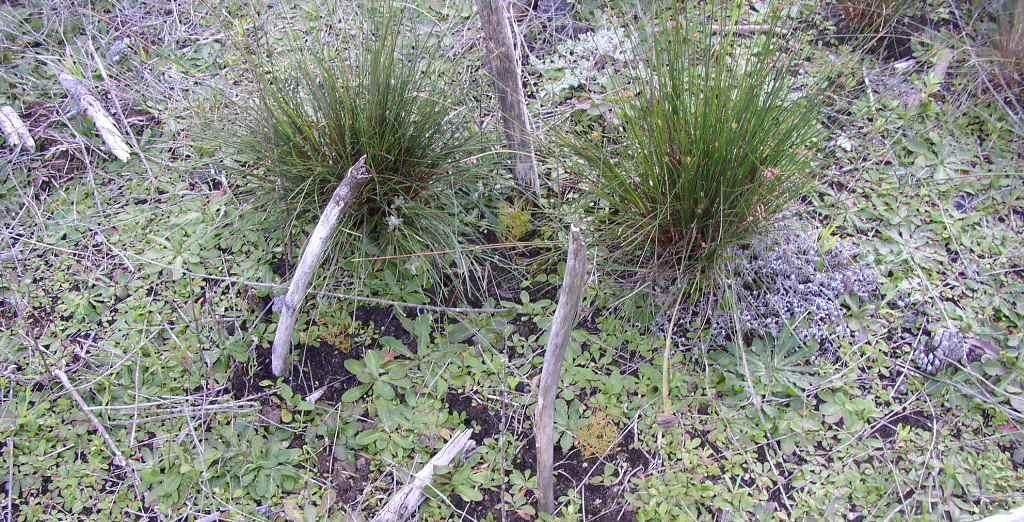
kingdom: Plantae
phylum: Tracheophyta
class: Magnoliopsida
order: Proteales
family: Proteaceae
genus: Serruria
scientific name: Serruria
